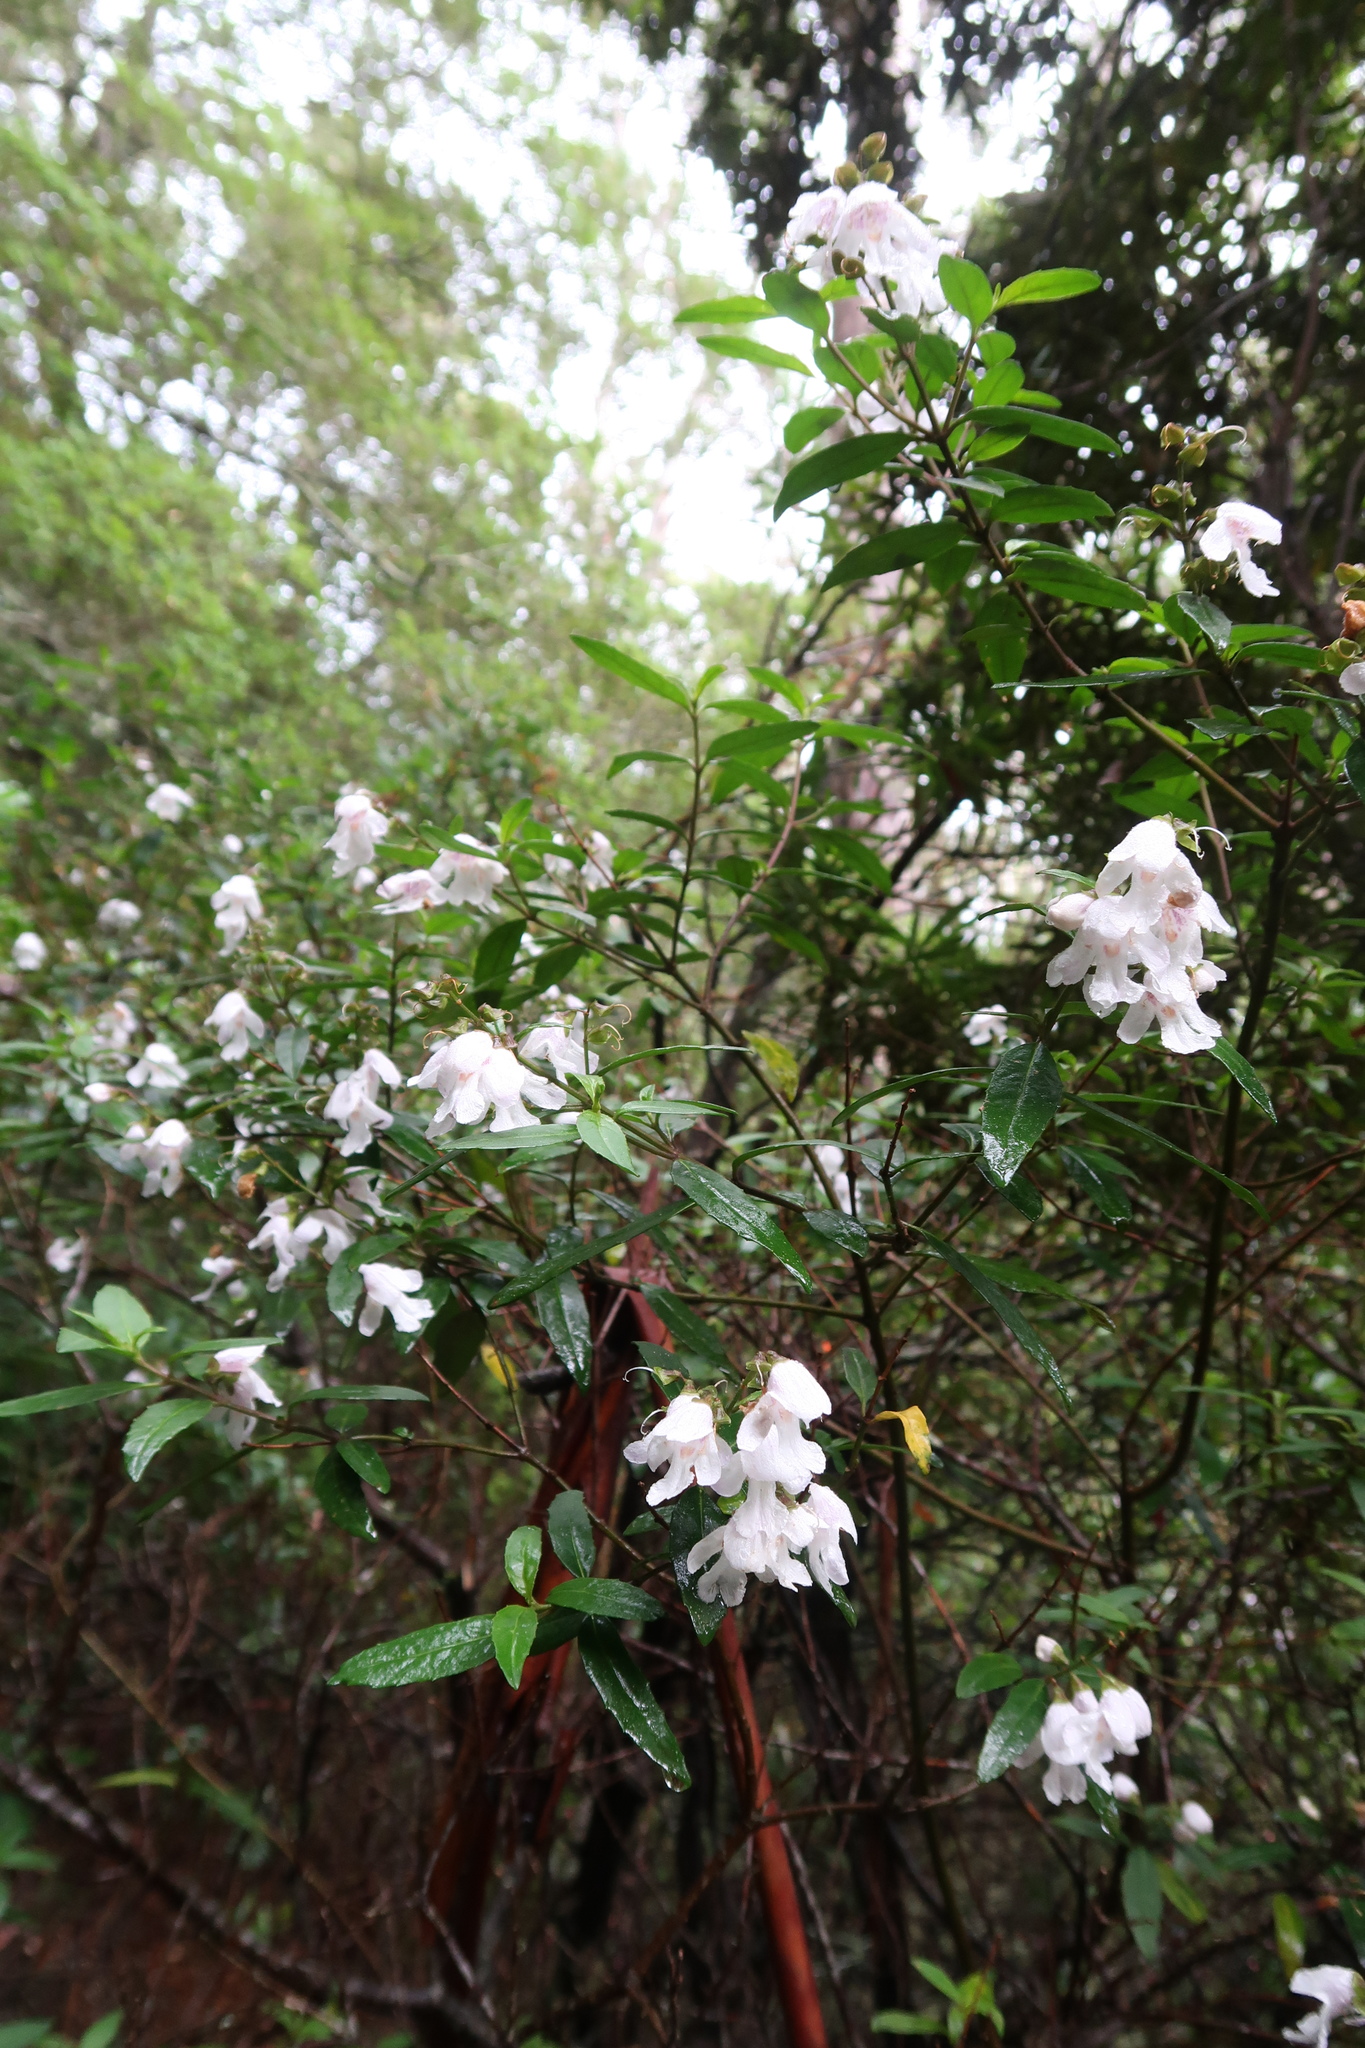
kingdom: Plantae
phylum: Tracheophyta
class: Magnoliopsida
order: Lamiales
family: Lamiaceae
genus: Prostanthera
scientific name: Prostanthera lasianthos
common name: Mountain-lilac
